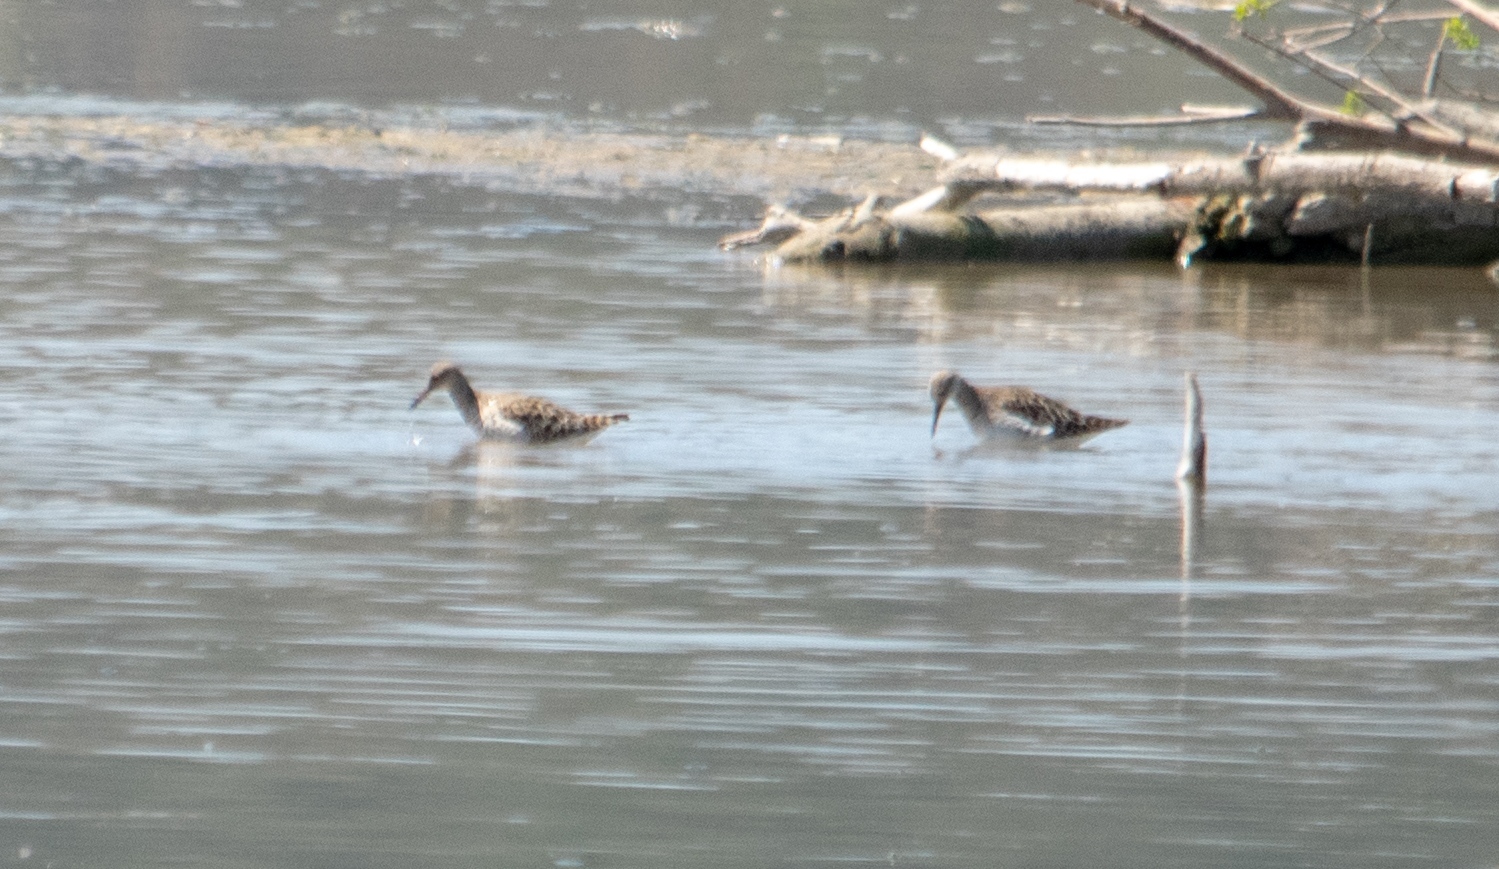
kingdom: Animalia
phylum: Chordata
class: Aves
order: Charadriiformes
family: Scolopacidae
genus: Calidris
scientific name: Calidris pugnax
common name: Ruff
